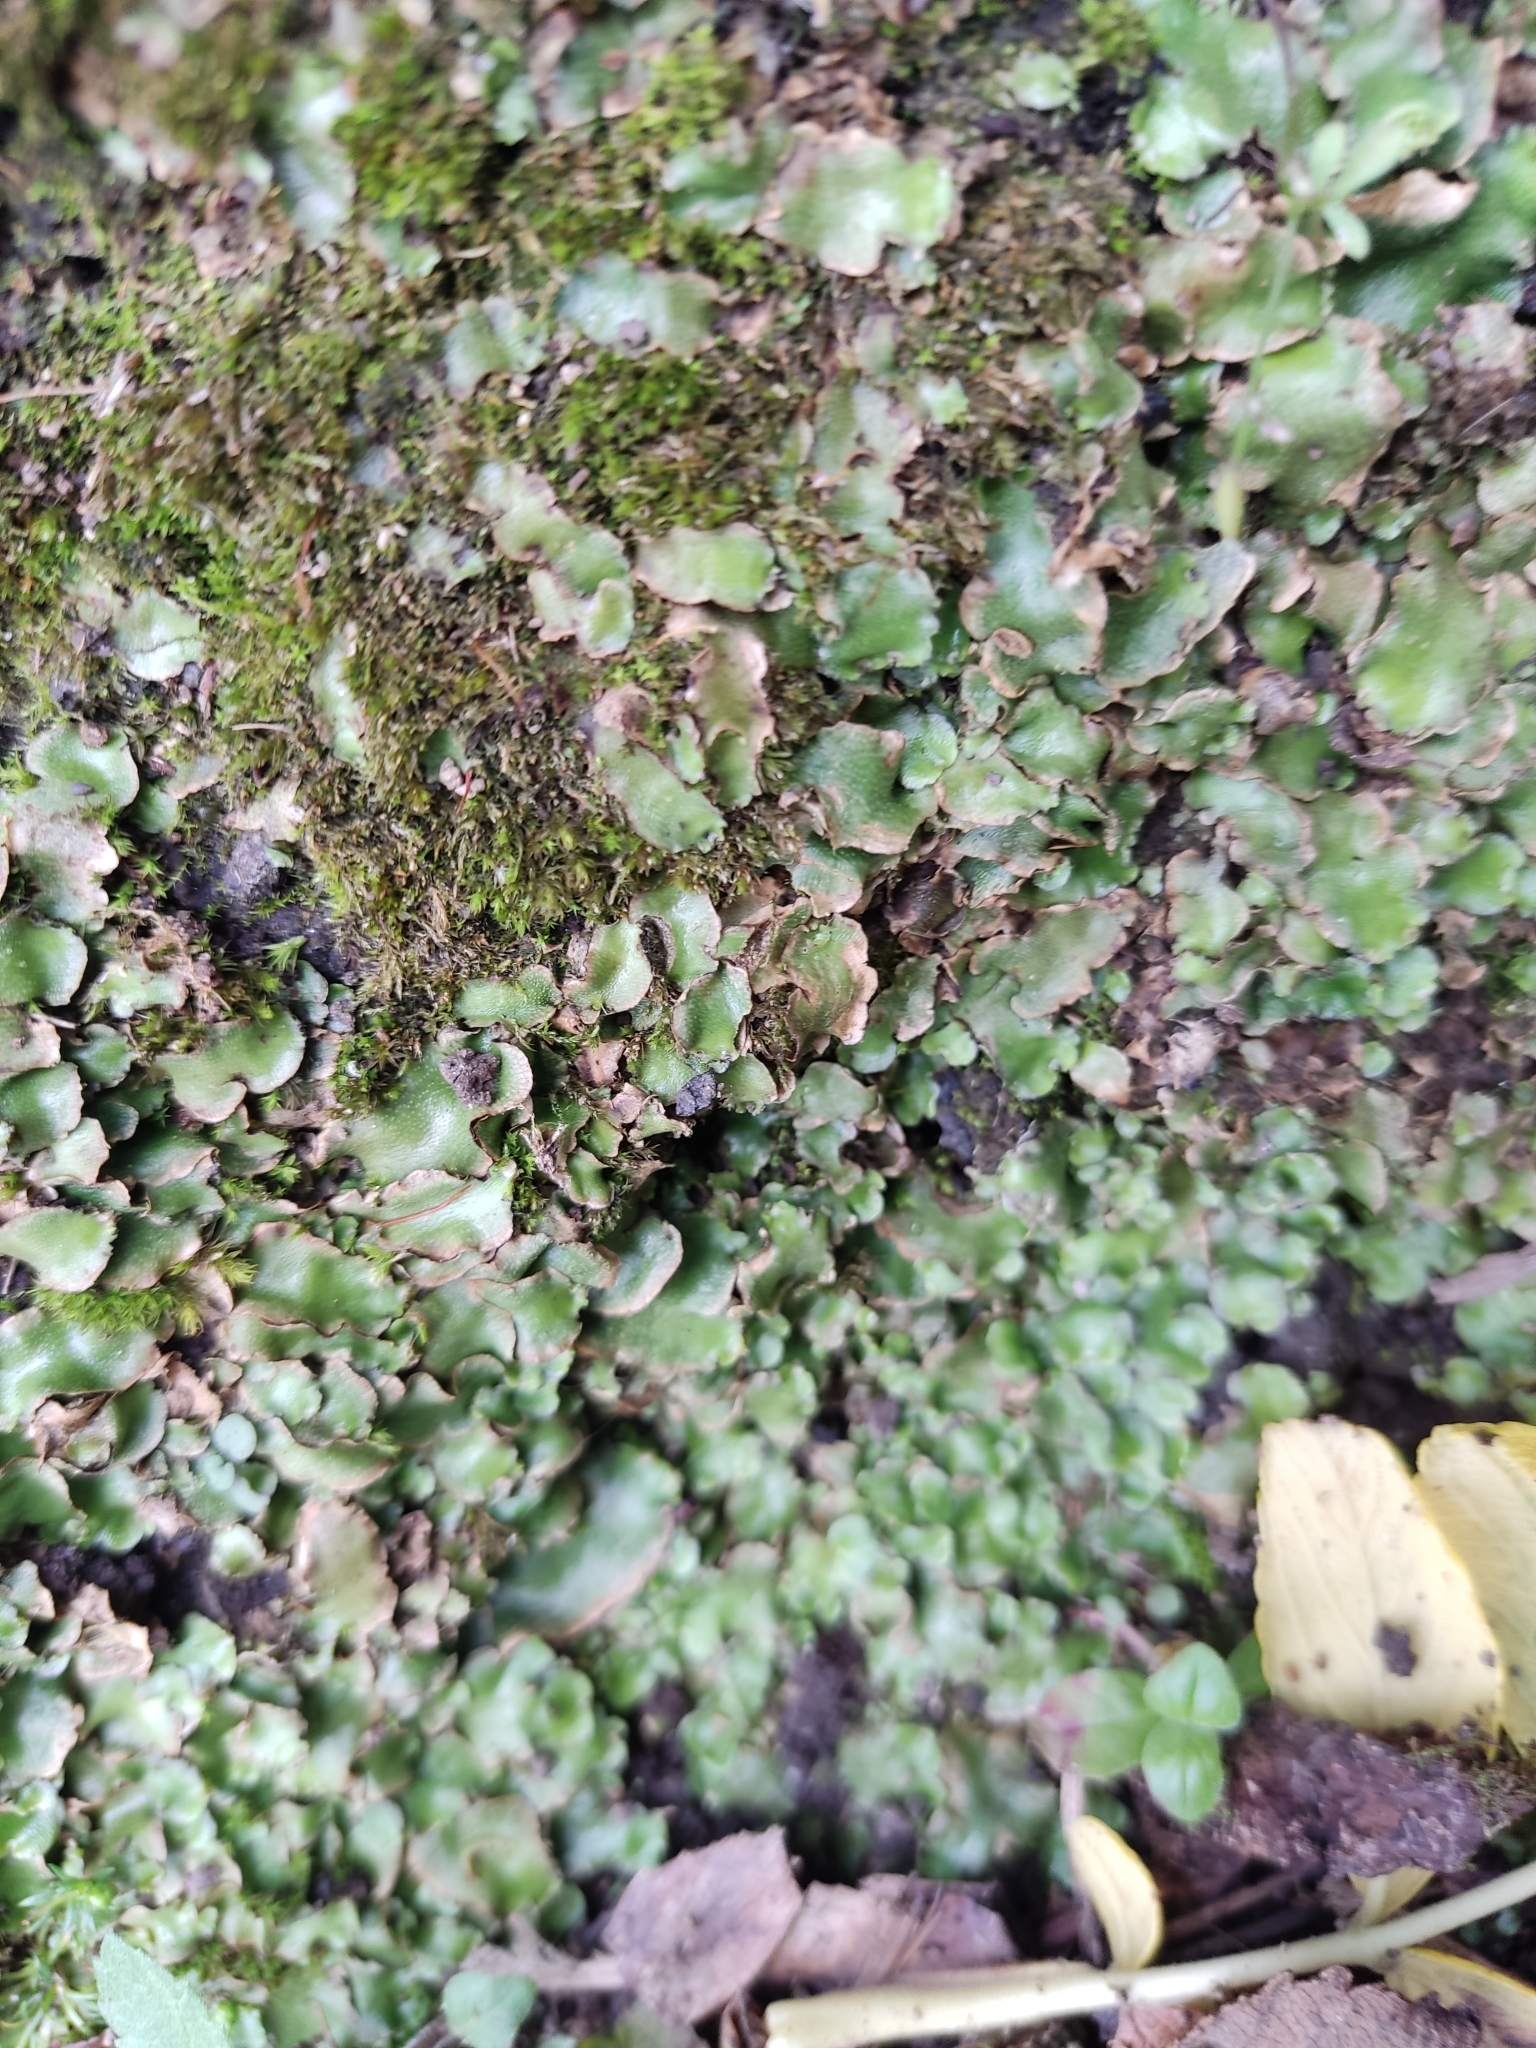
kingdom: Plantae
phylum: Marchantiophyta
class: Marchantiopsida
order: Lunulariales
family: Lunulariaceae
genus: Lunularia
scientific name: Lunularia cruciata
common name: Crescent-cup liverwort
